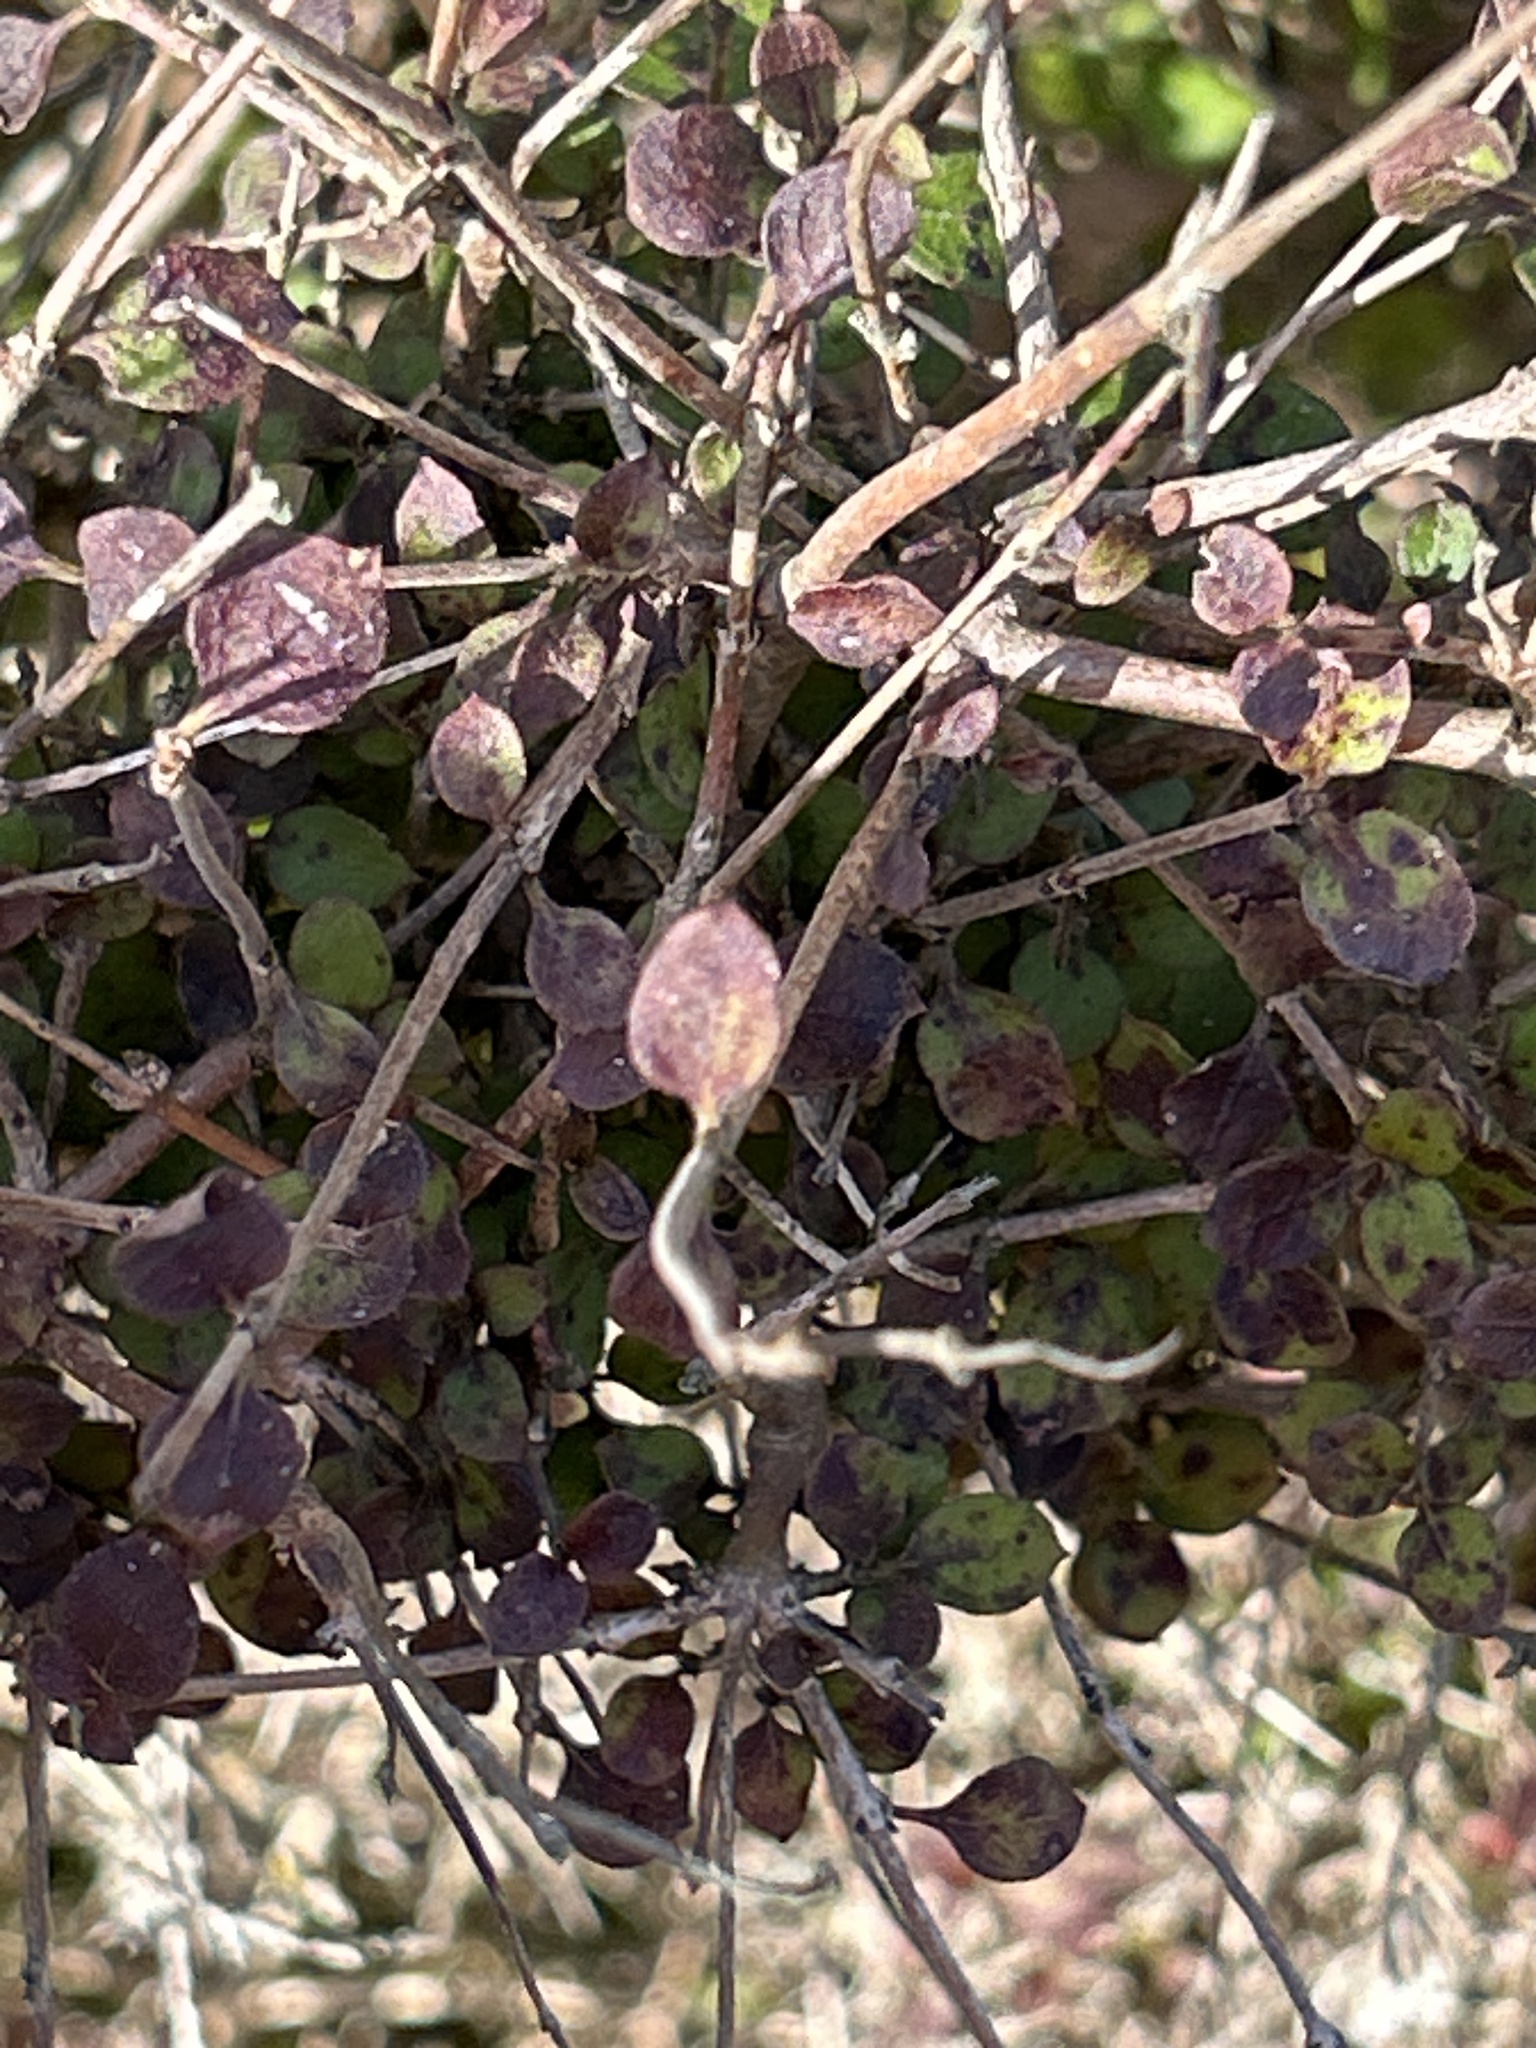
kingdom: Plantae
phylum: Tracheophyta
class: Magnoliopsida
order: Gentianales
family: Rubiaceae
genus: Coprosma
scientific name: Coprosma rotundifolia
